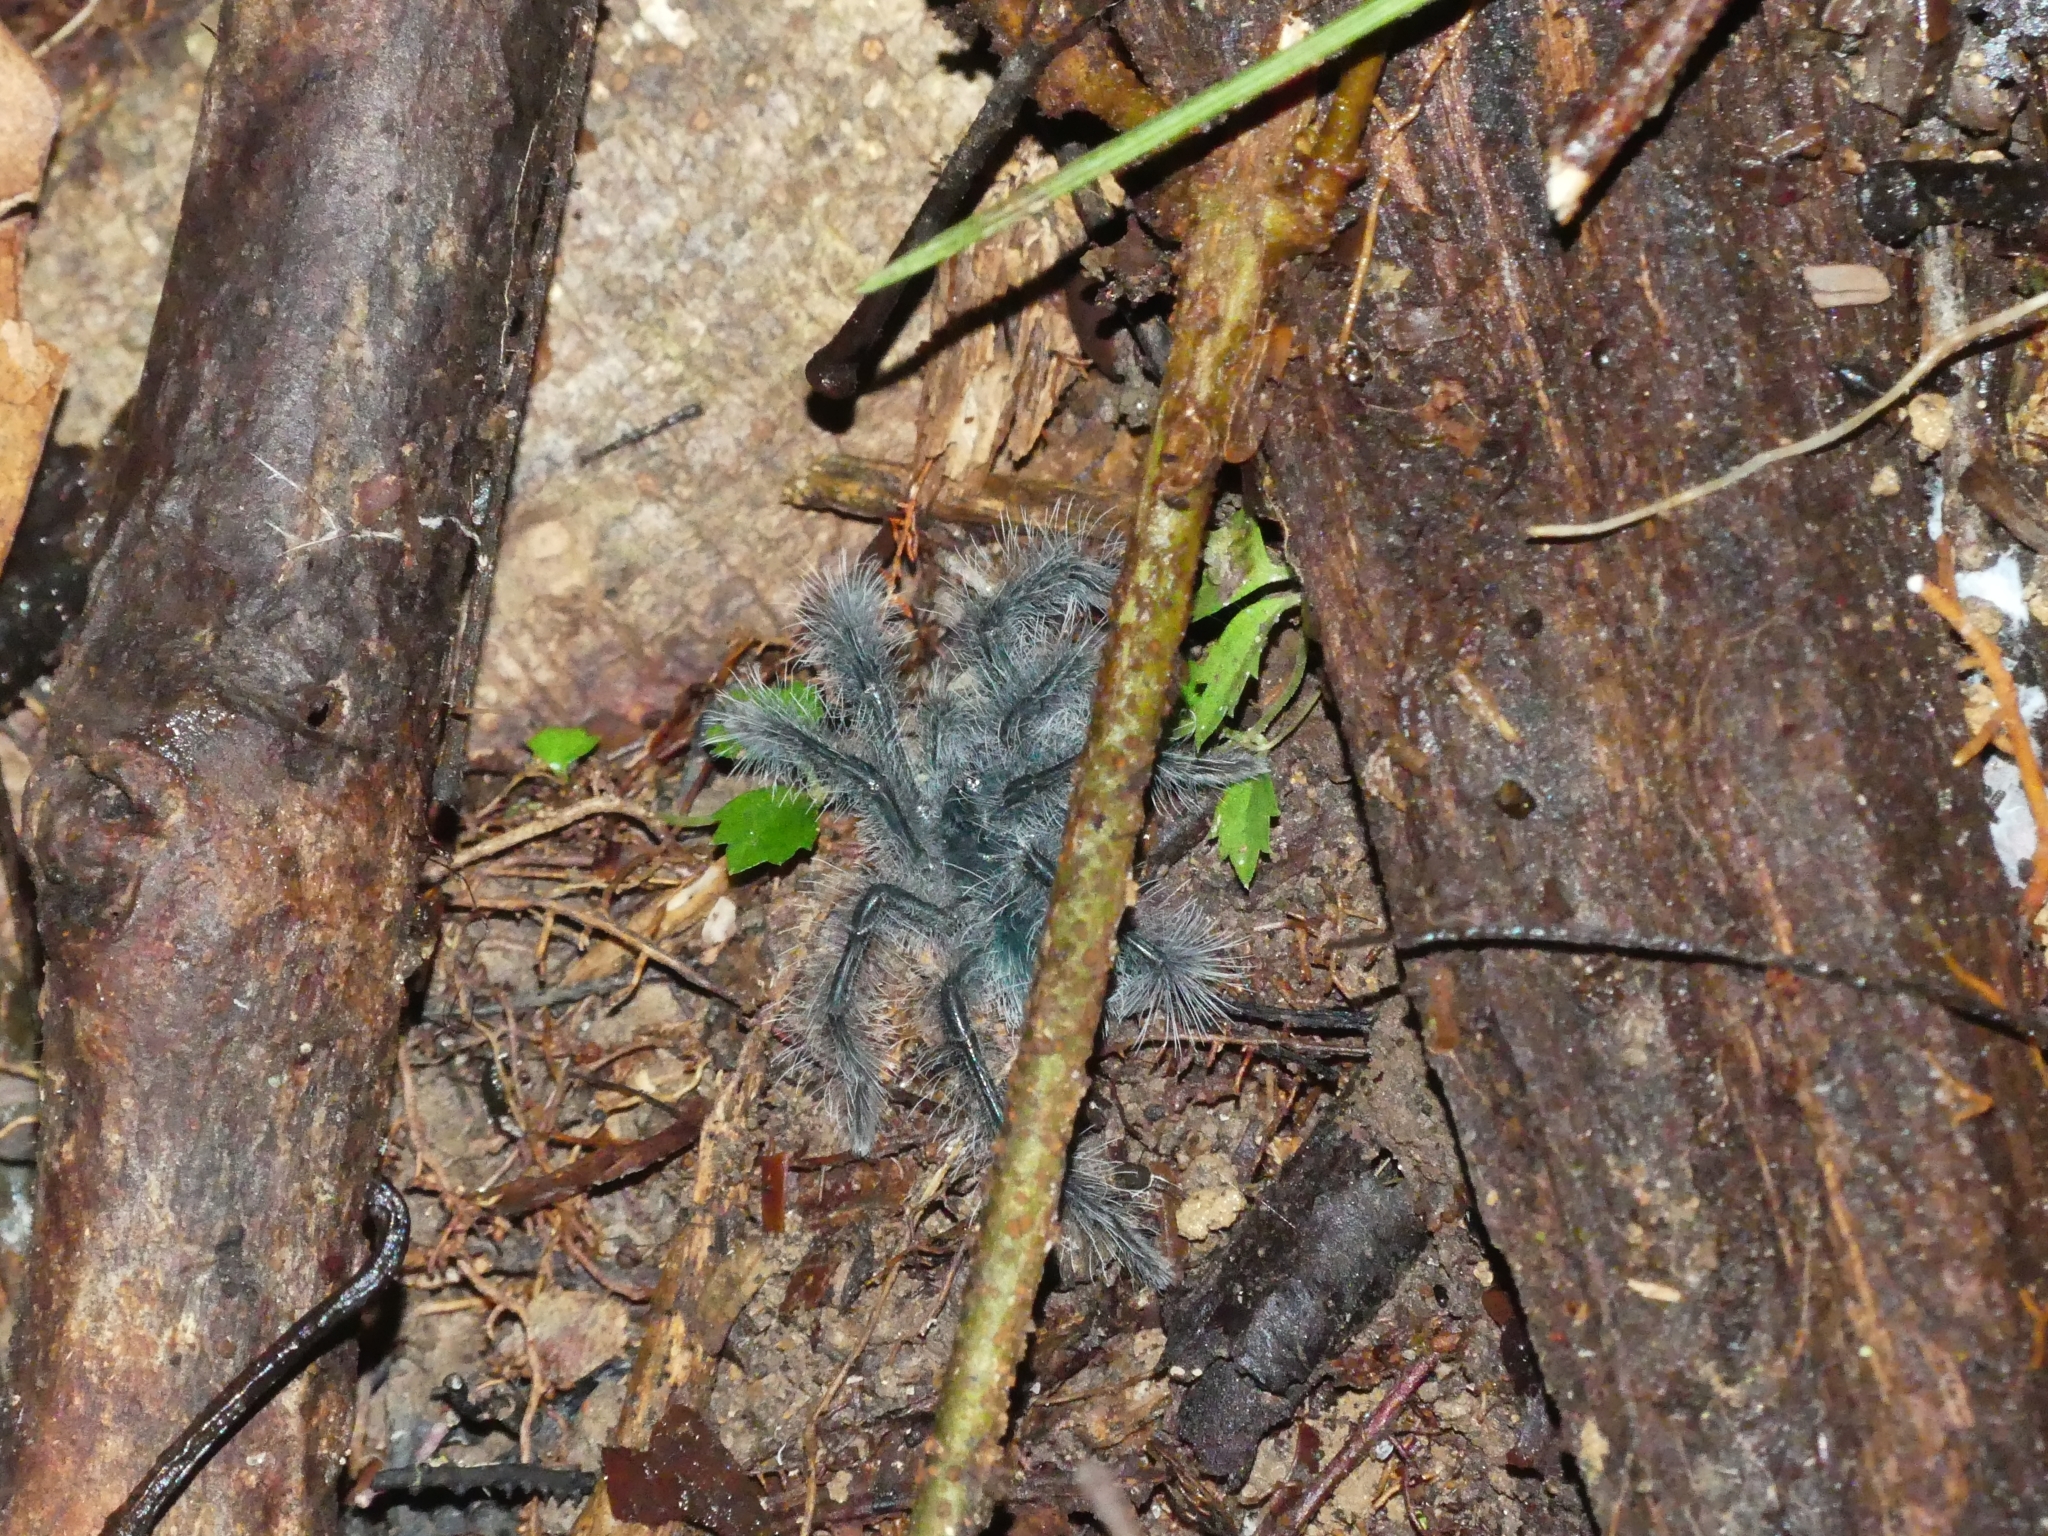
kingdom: Animalia
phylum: Arthropoda
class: Arachnida
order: Araneae
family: Theraphosidae
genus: Theraphosa
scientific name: Theraphosa blondi
